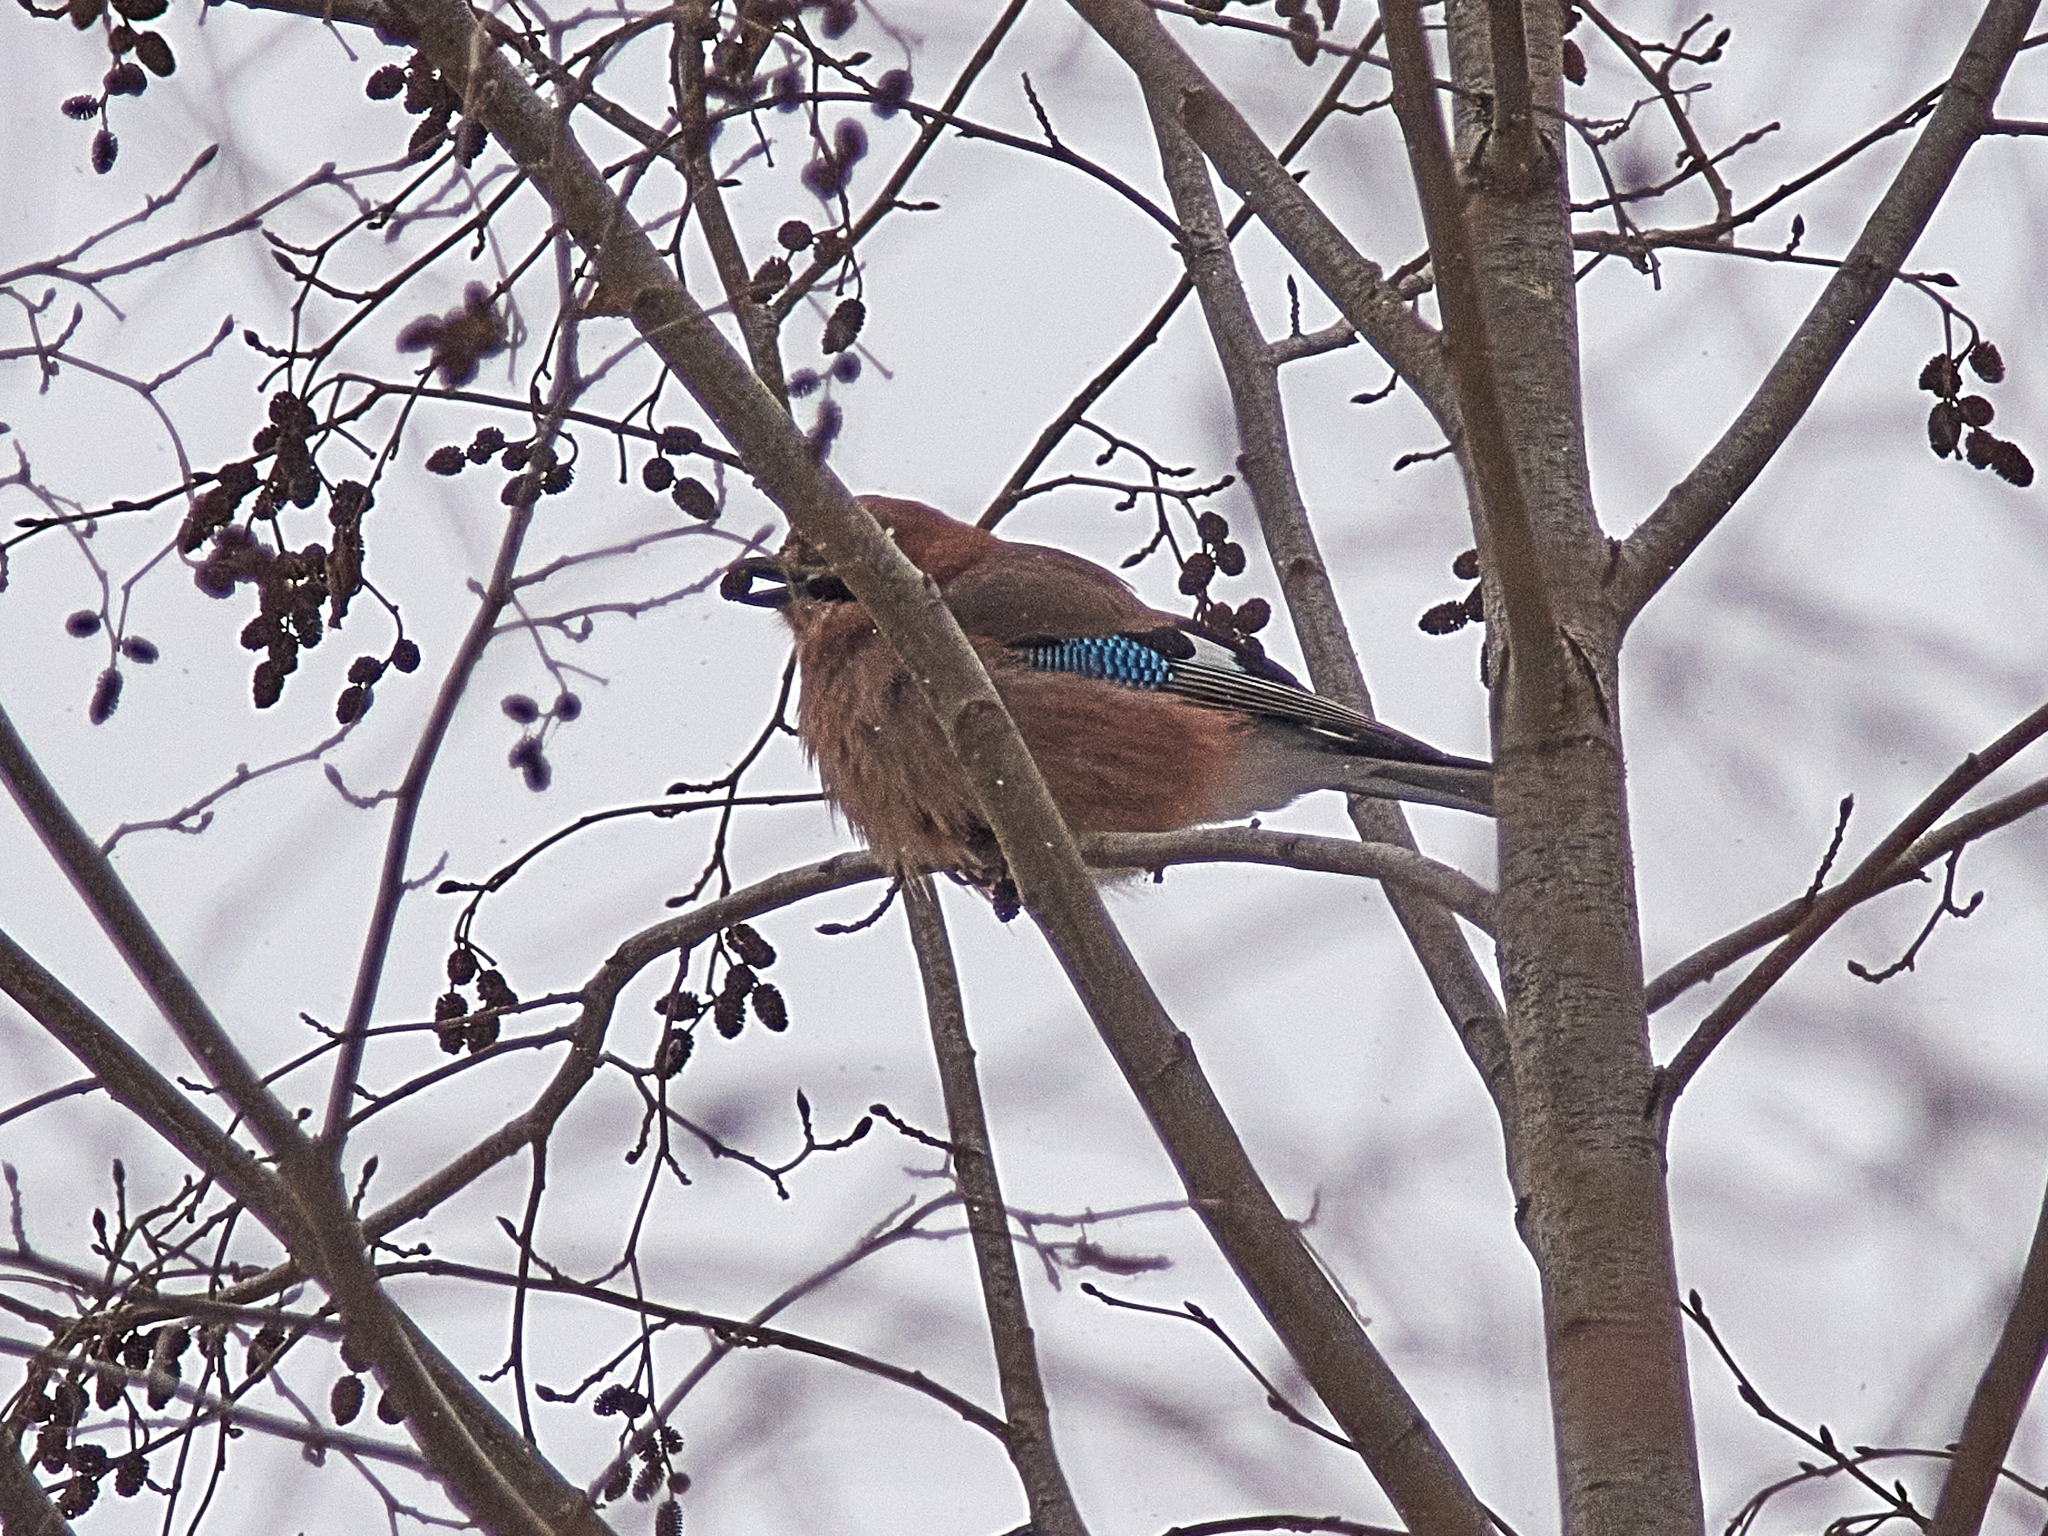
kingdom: Animalia
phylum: Chordata
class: Aves
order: Passeriformes
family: Corvidae
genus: Garrulus
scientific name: Garrulus glandarius
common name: Eurasian jay
